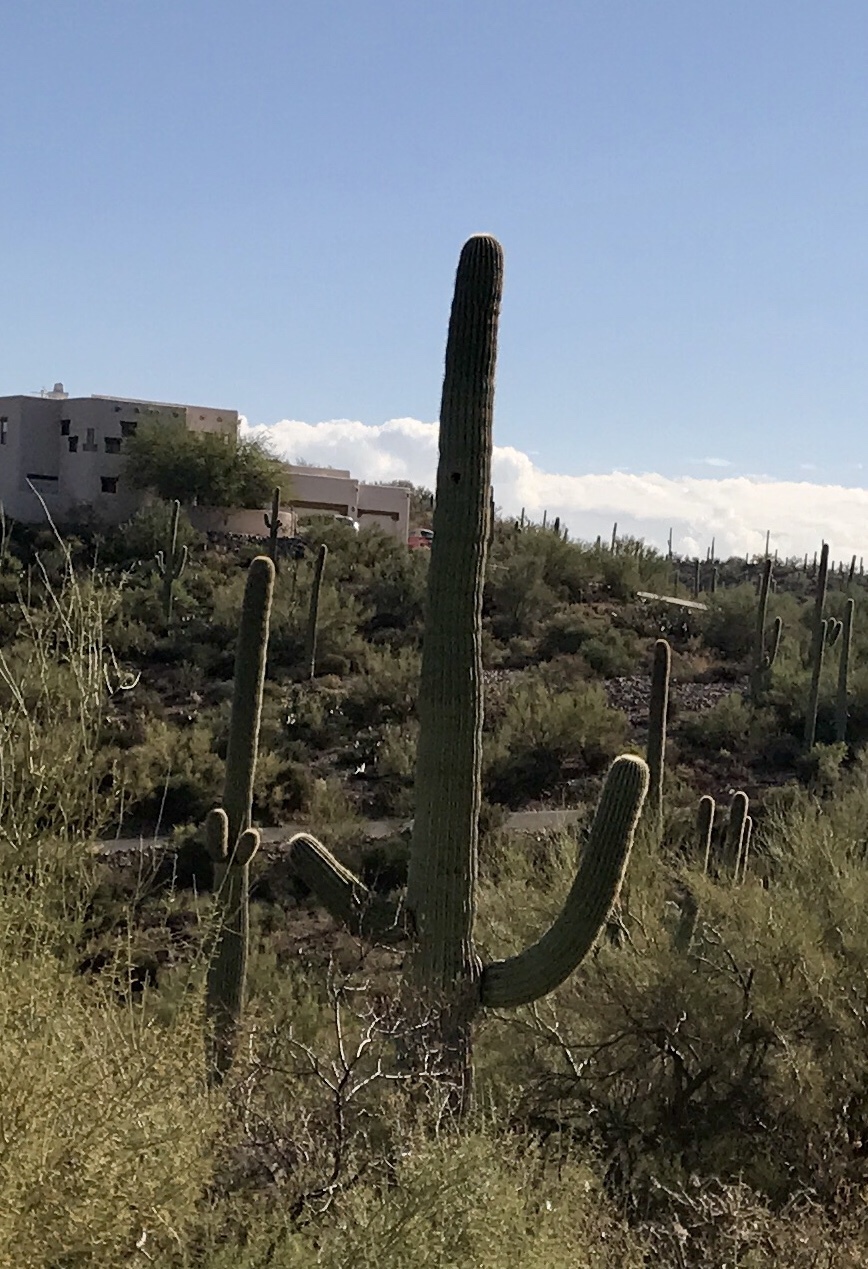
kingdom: Plantae
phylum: Tracheophyta
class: Magnoliopsida
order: Caryophyllales
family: Cactaceae
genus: Carnegiea
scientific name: Carnegiea gigantea
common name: Saguaro
